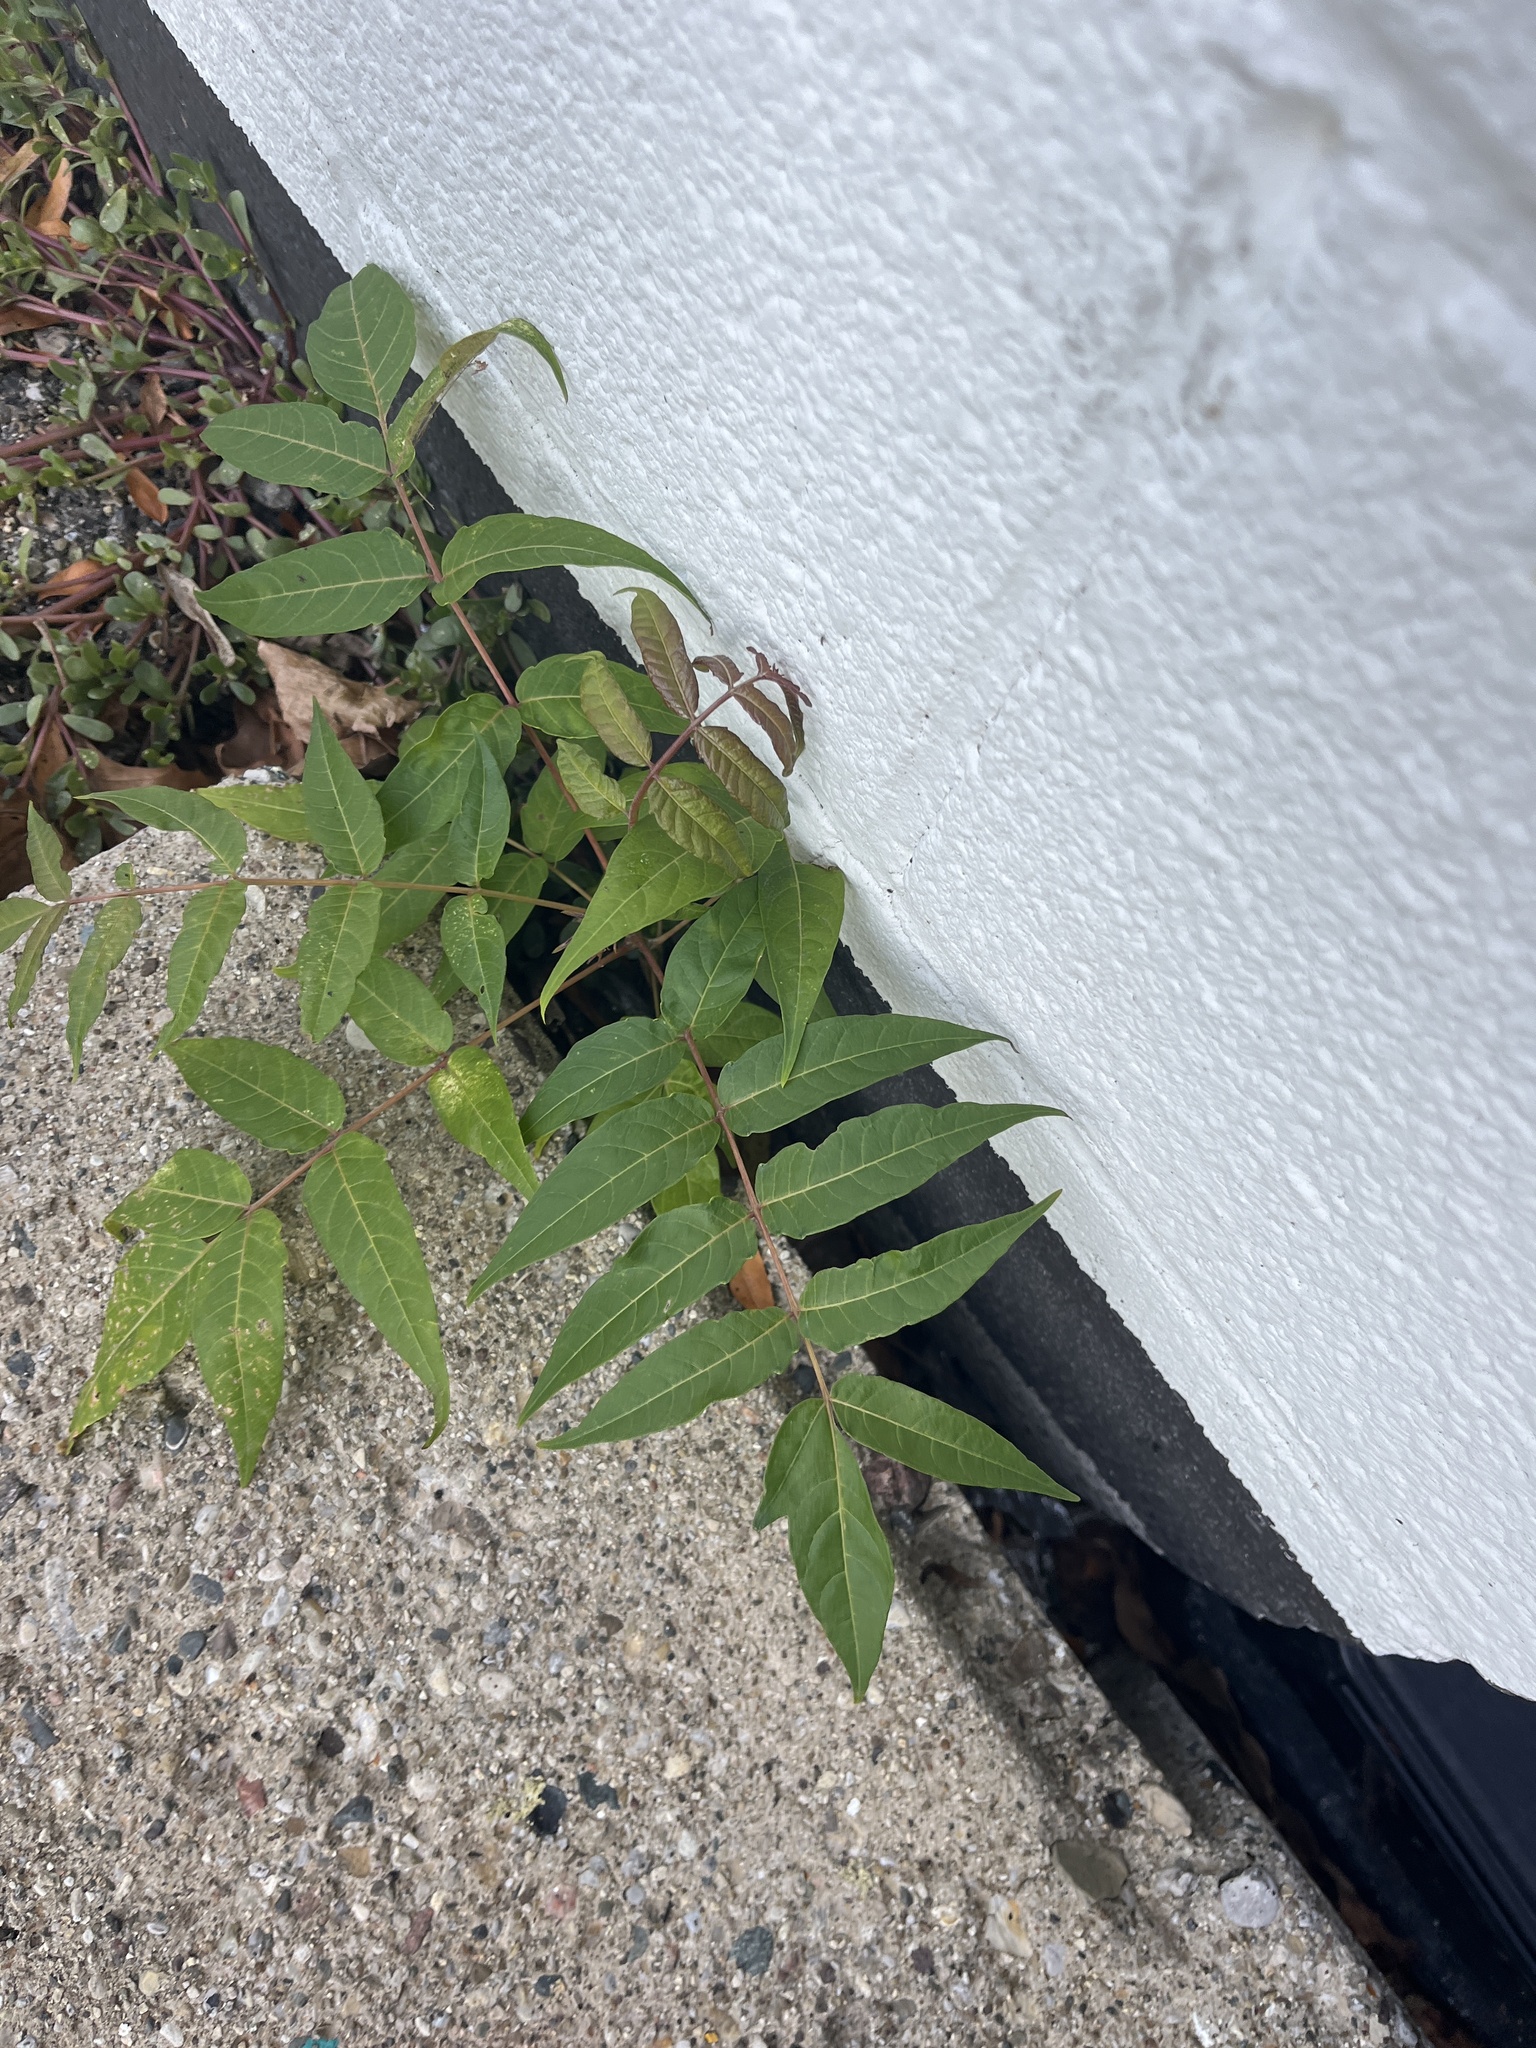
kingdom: Plantae
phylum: Tracheophyta
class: Magnoliopsida
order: Sapindales
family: Simaroubaceae
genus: Ailanthus
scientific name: Ailanthus altissima
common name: Tree-of-heaven
